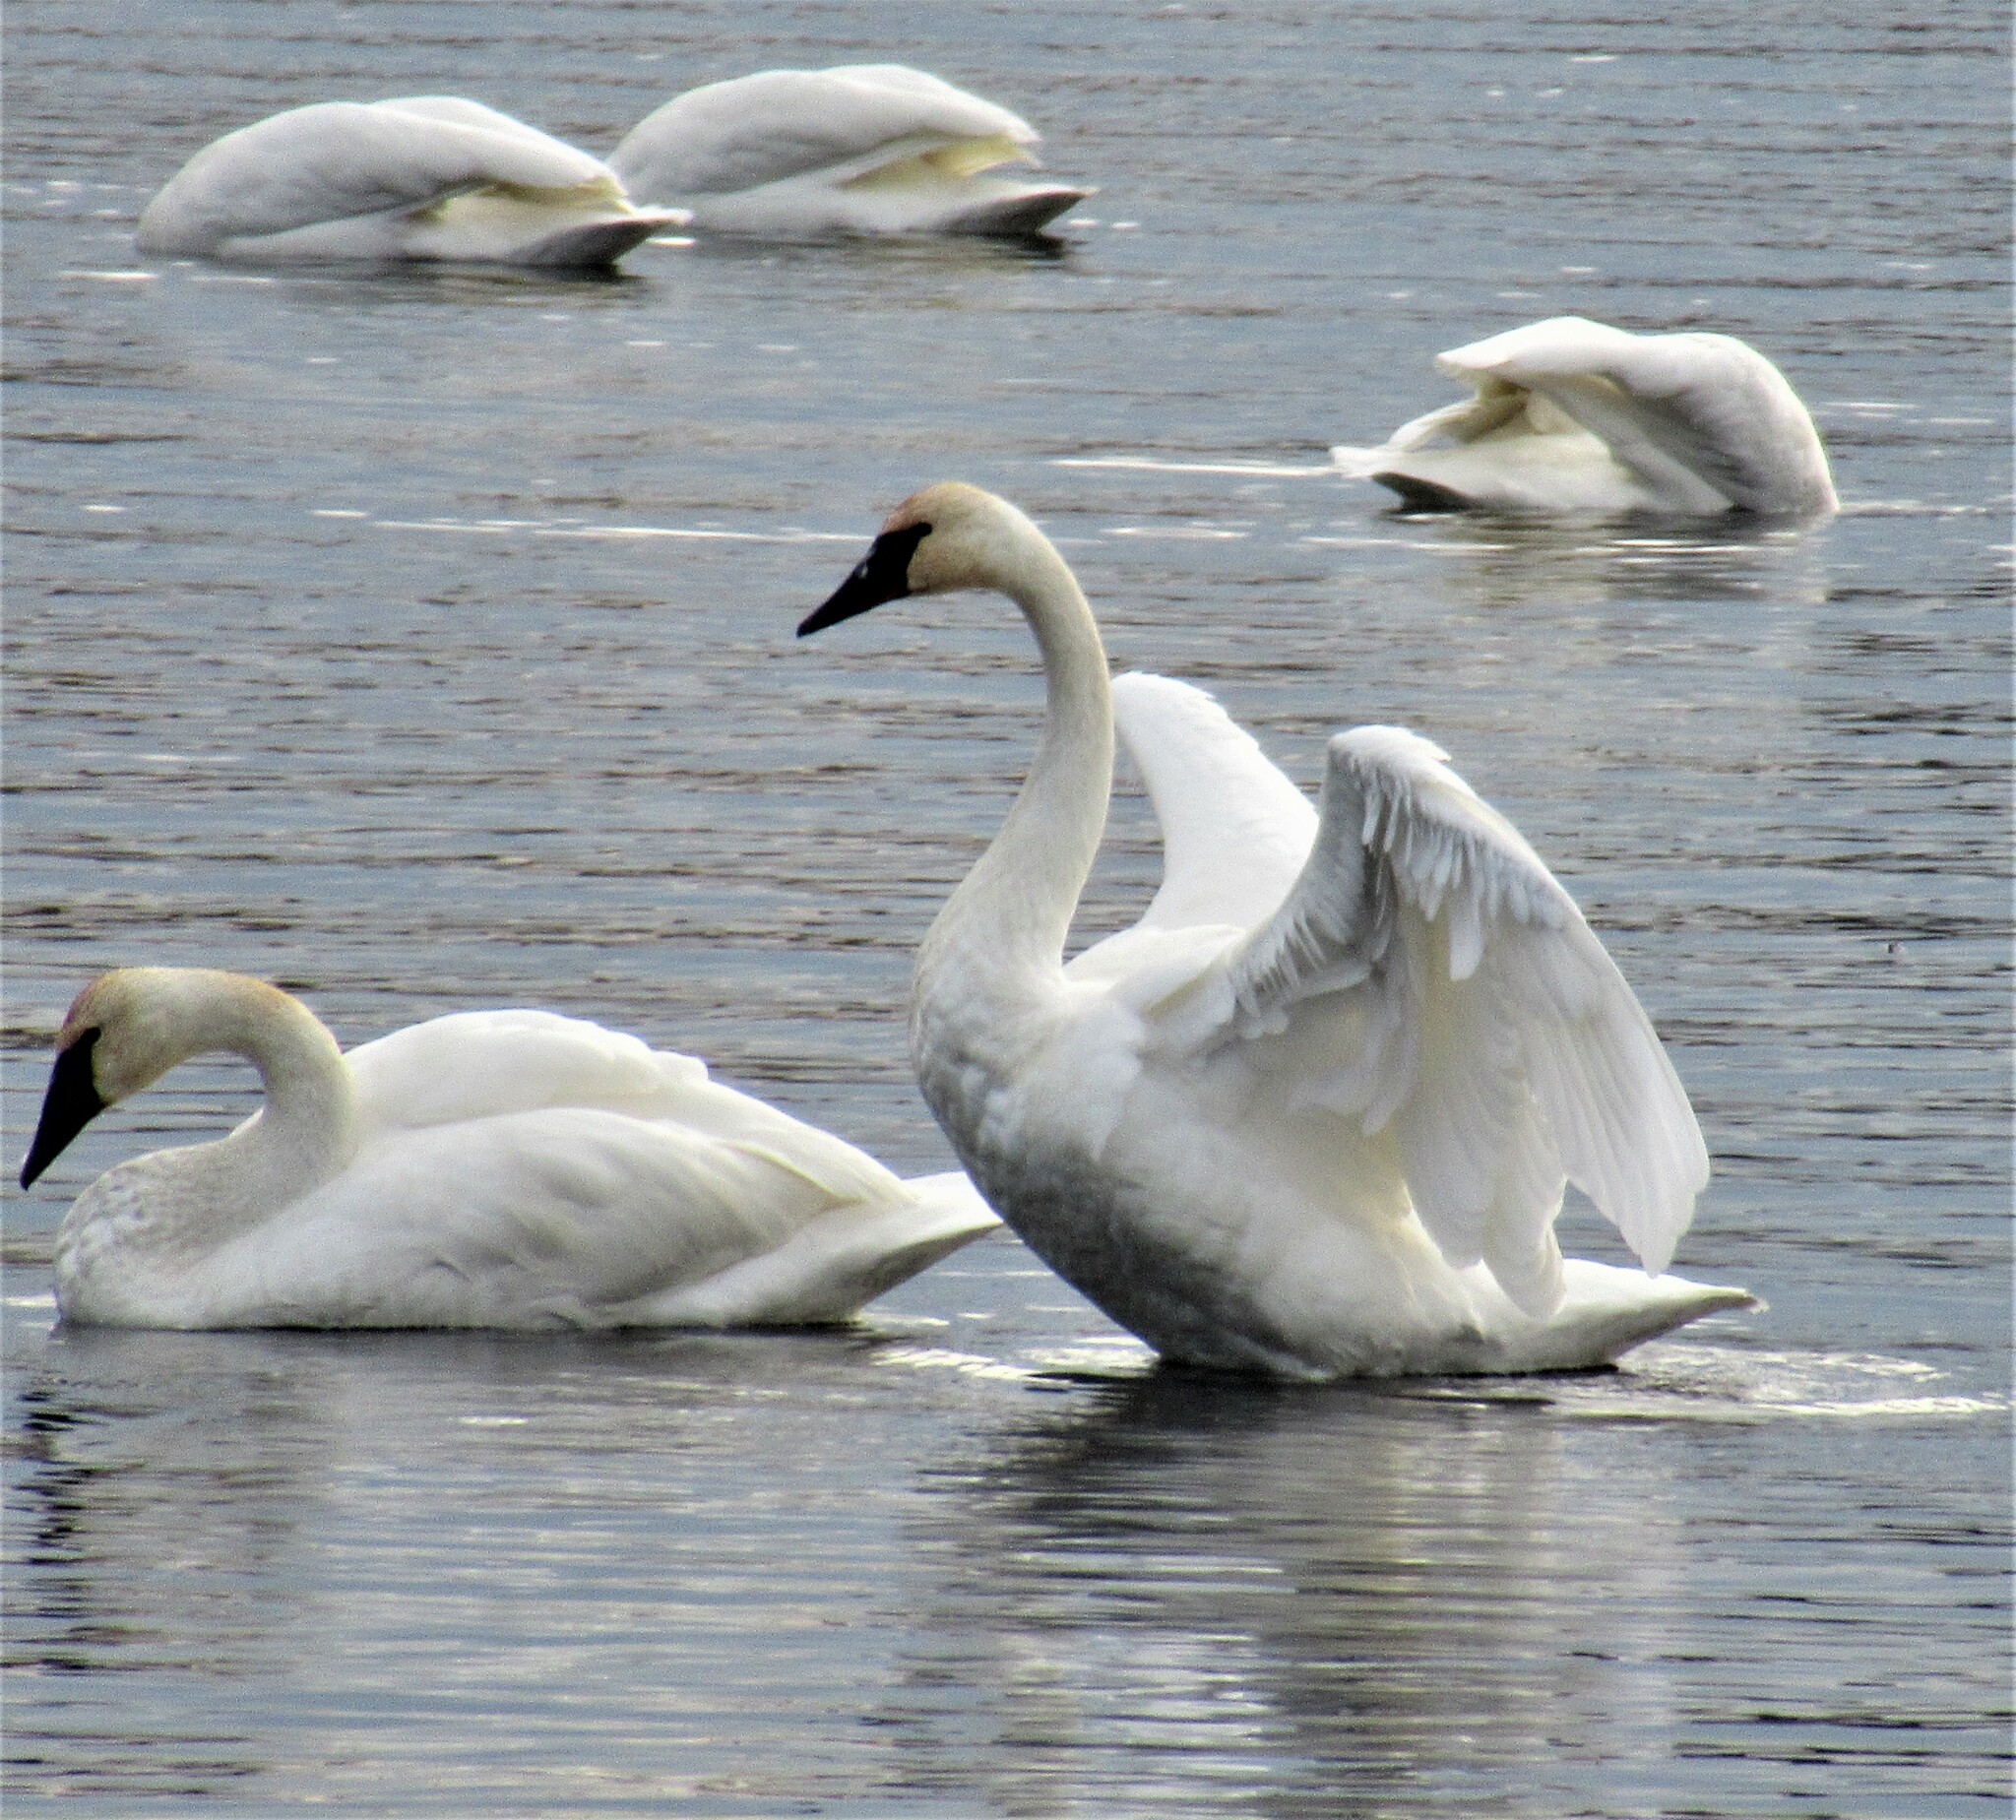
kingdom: Animalia
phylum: Chordata
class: Aves
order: Anseriformes
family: Anatidae
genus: Cygnus
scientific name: Cygnus buccinator
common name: Trumpeter swan
